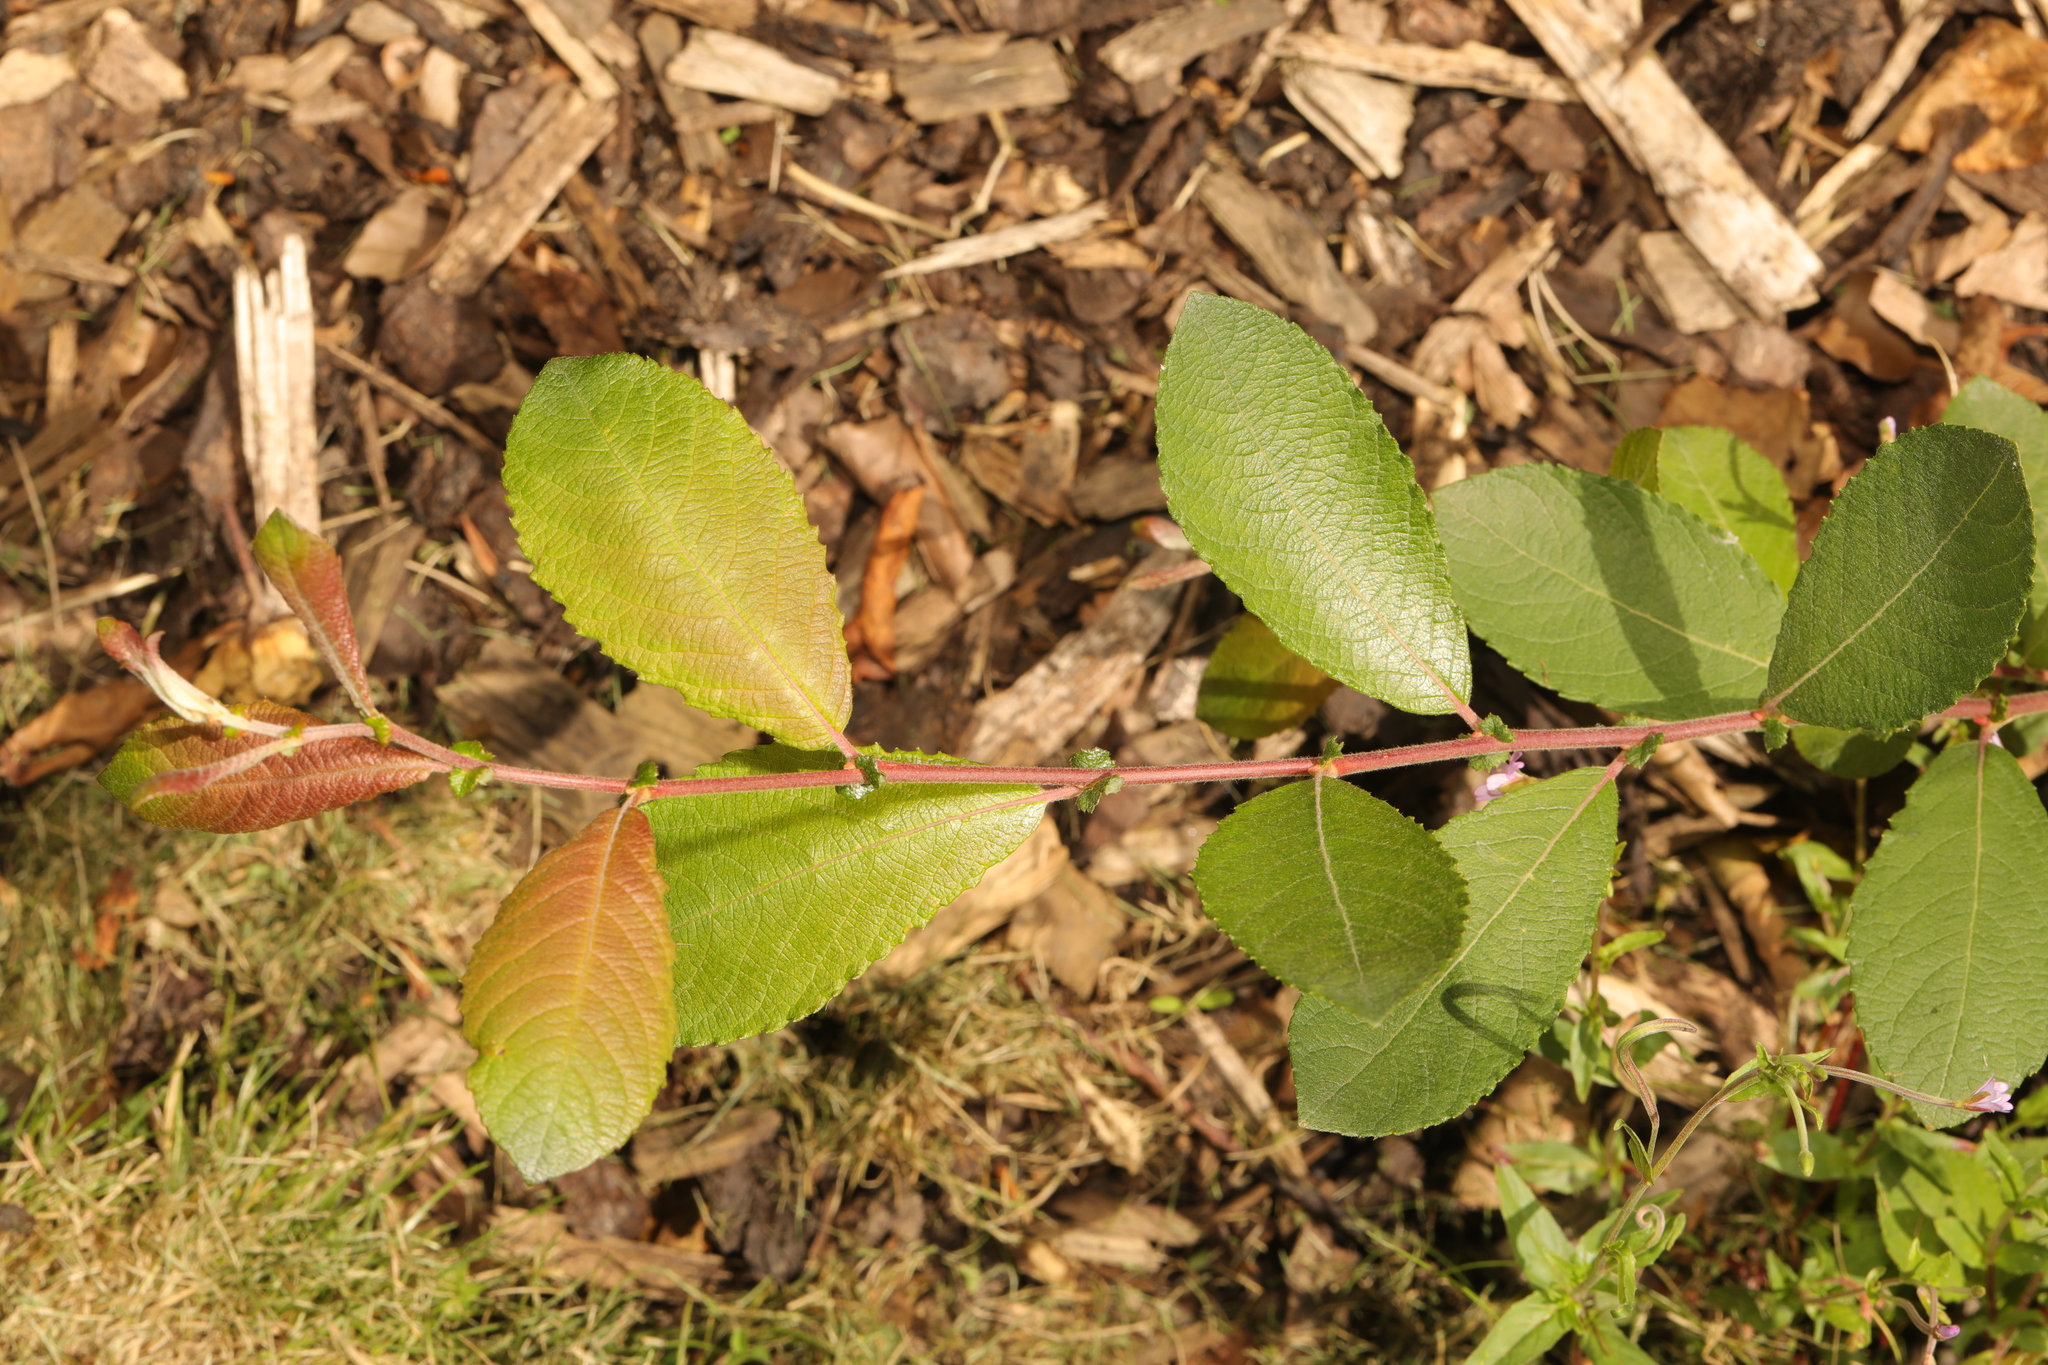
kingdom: Plantae
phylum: Tracheophyta
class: Magnoliopsida
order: Malpighiales
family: Salicaceae
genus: Salix
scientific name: Salix cinerea
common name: Common sallow
